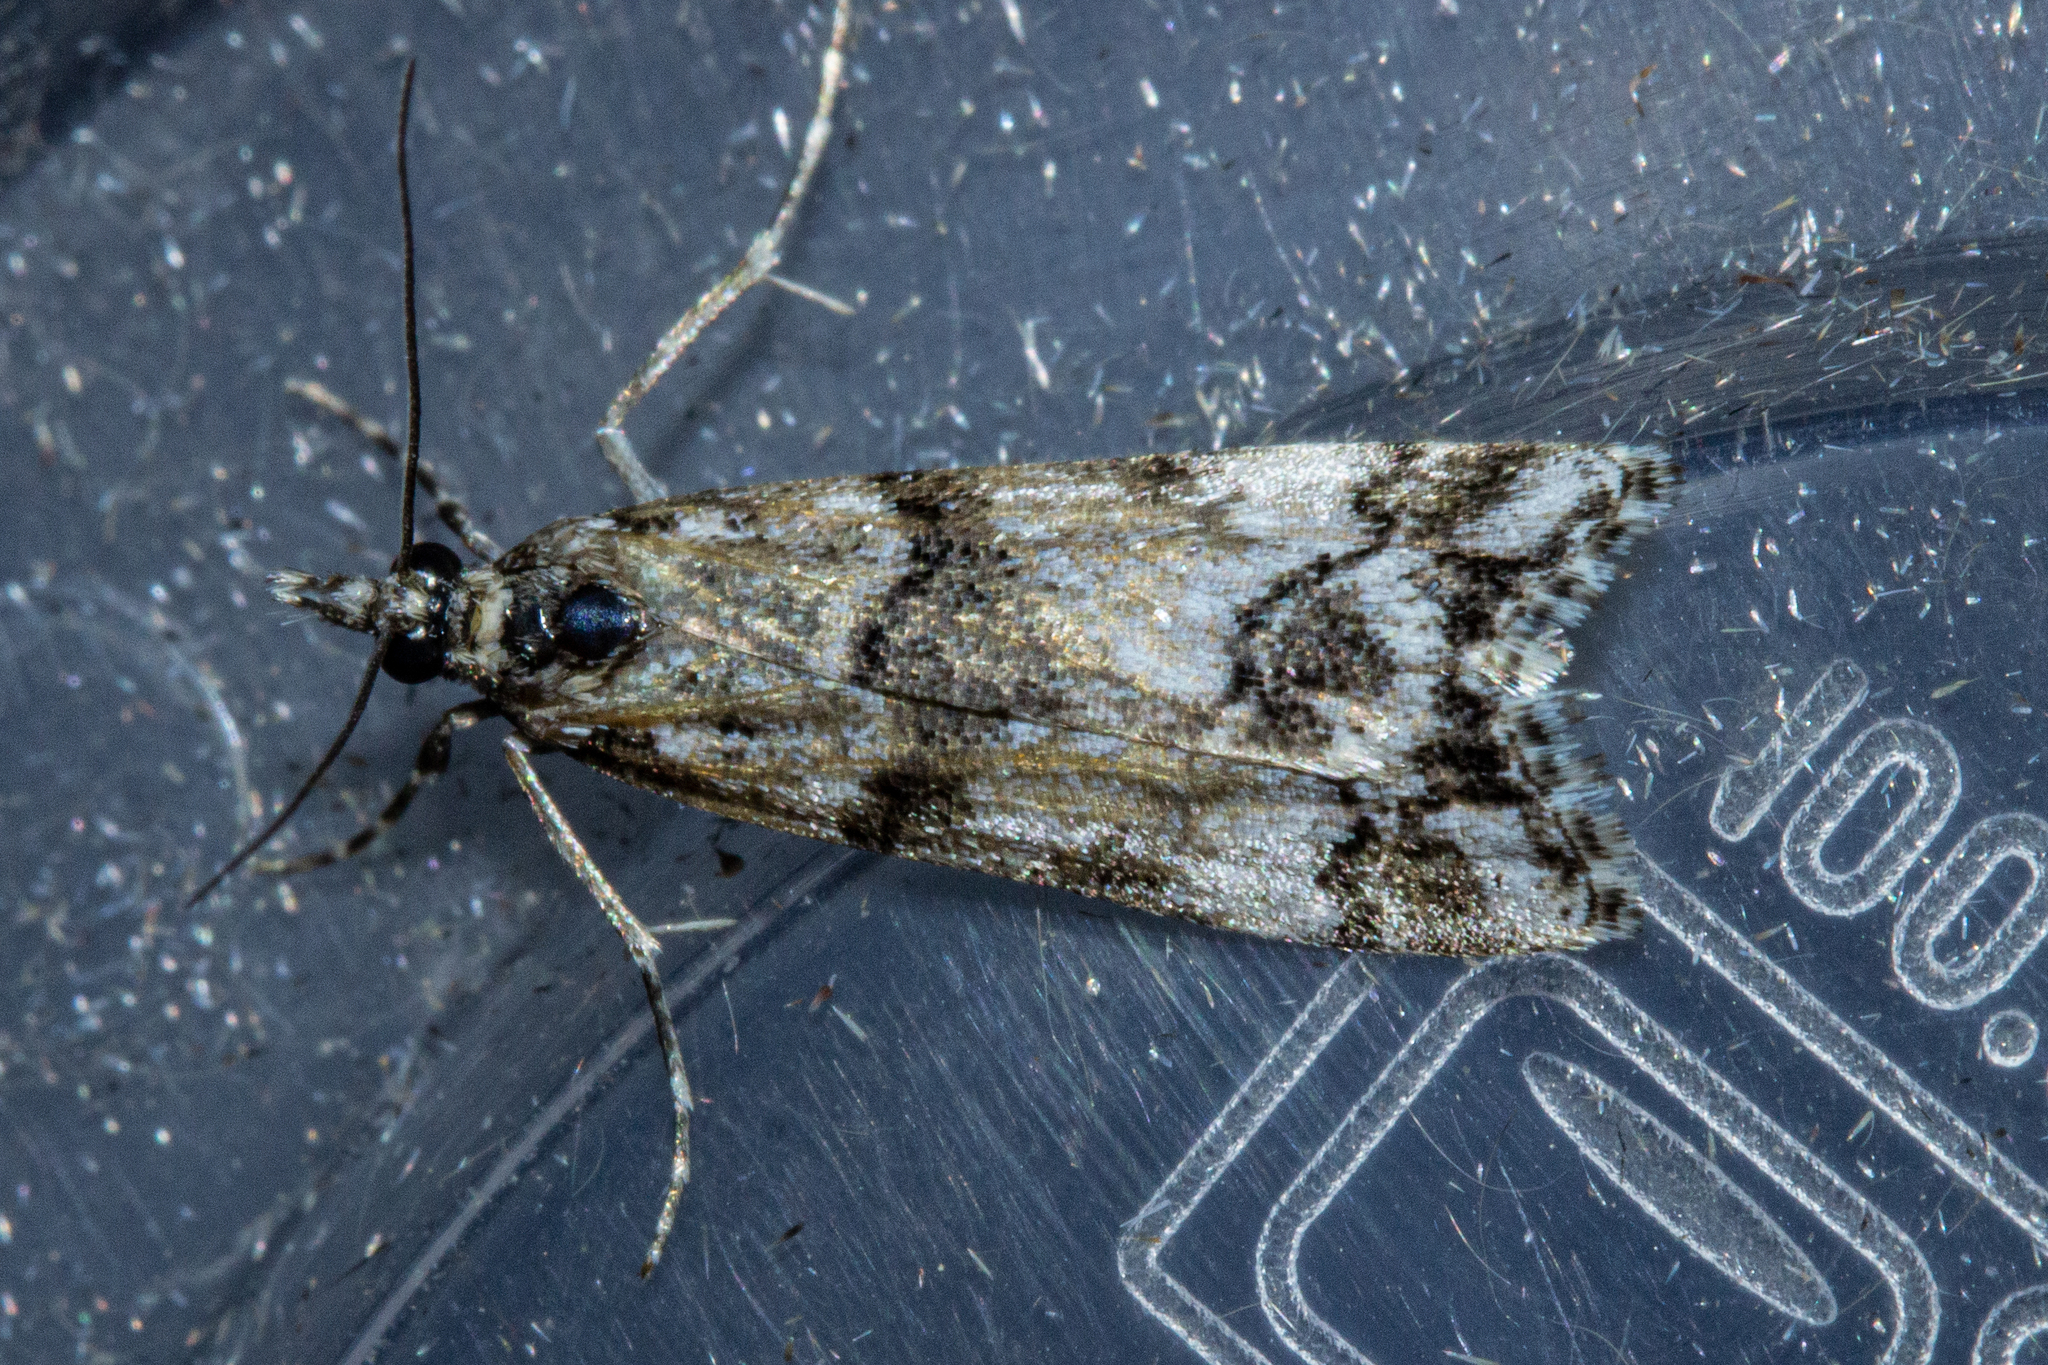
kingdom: Animalia
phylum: Arthropoda
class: Insecta
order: Lepidoptera
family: Crambidae
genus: Eudonia
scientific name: Eudonia torodes
